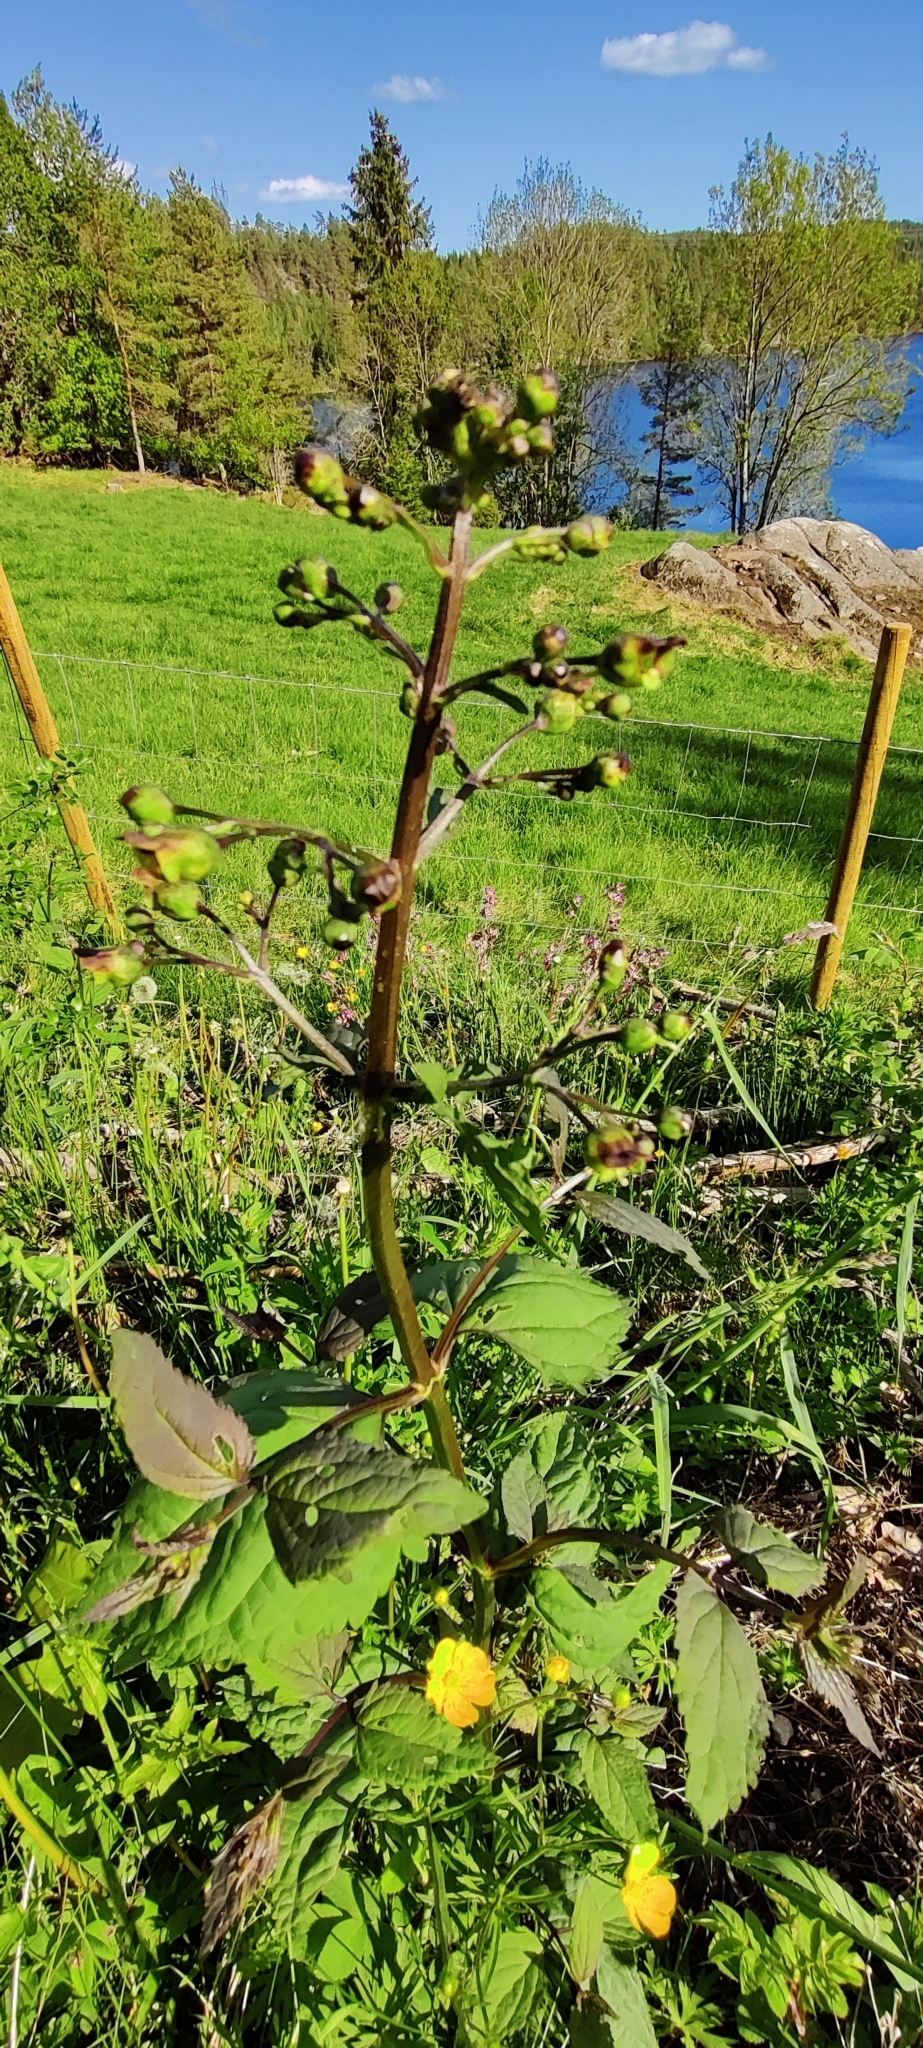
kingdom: Plantae
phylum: Tracheophyta
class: Magnoliopsida
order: Lamiales
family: Scrophulariaceae
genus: Scrophularia
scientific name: Scrophularia nodosa
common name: Common figwort
